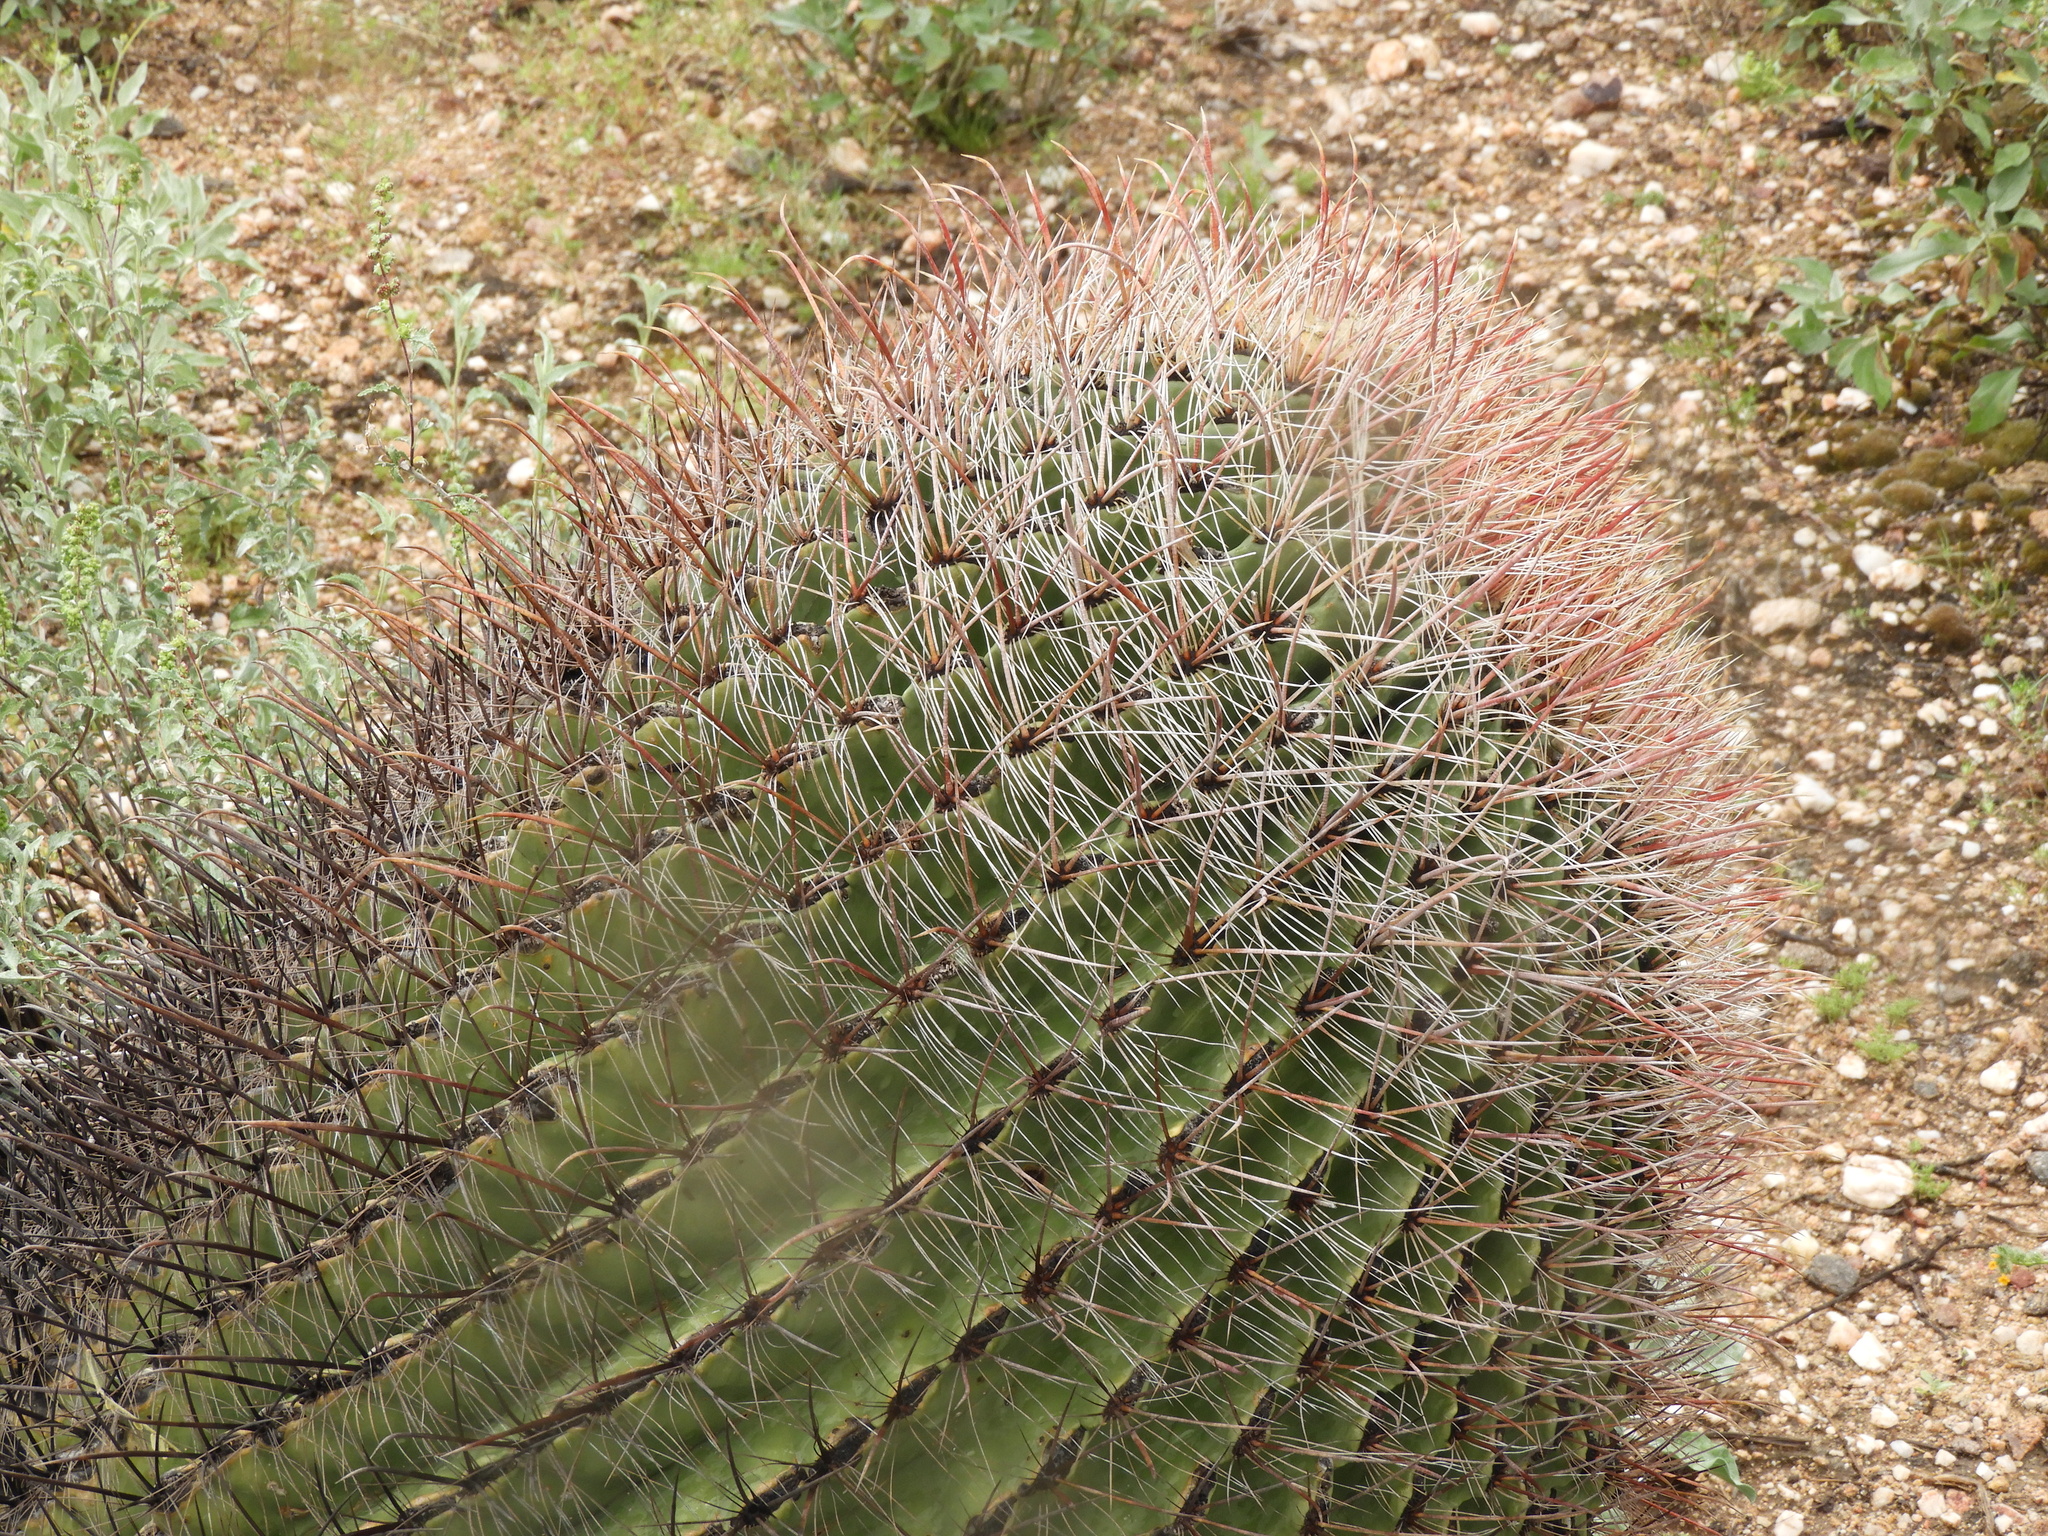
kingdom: Plantae
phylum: Tracheophyta
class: Magnoliopsida
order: Caryophyllales
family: Cactaceae
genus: Ferocactus
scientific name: Ferocactus wislizeni
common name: Candy barrel cactus
